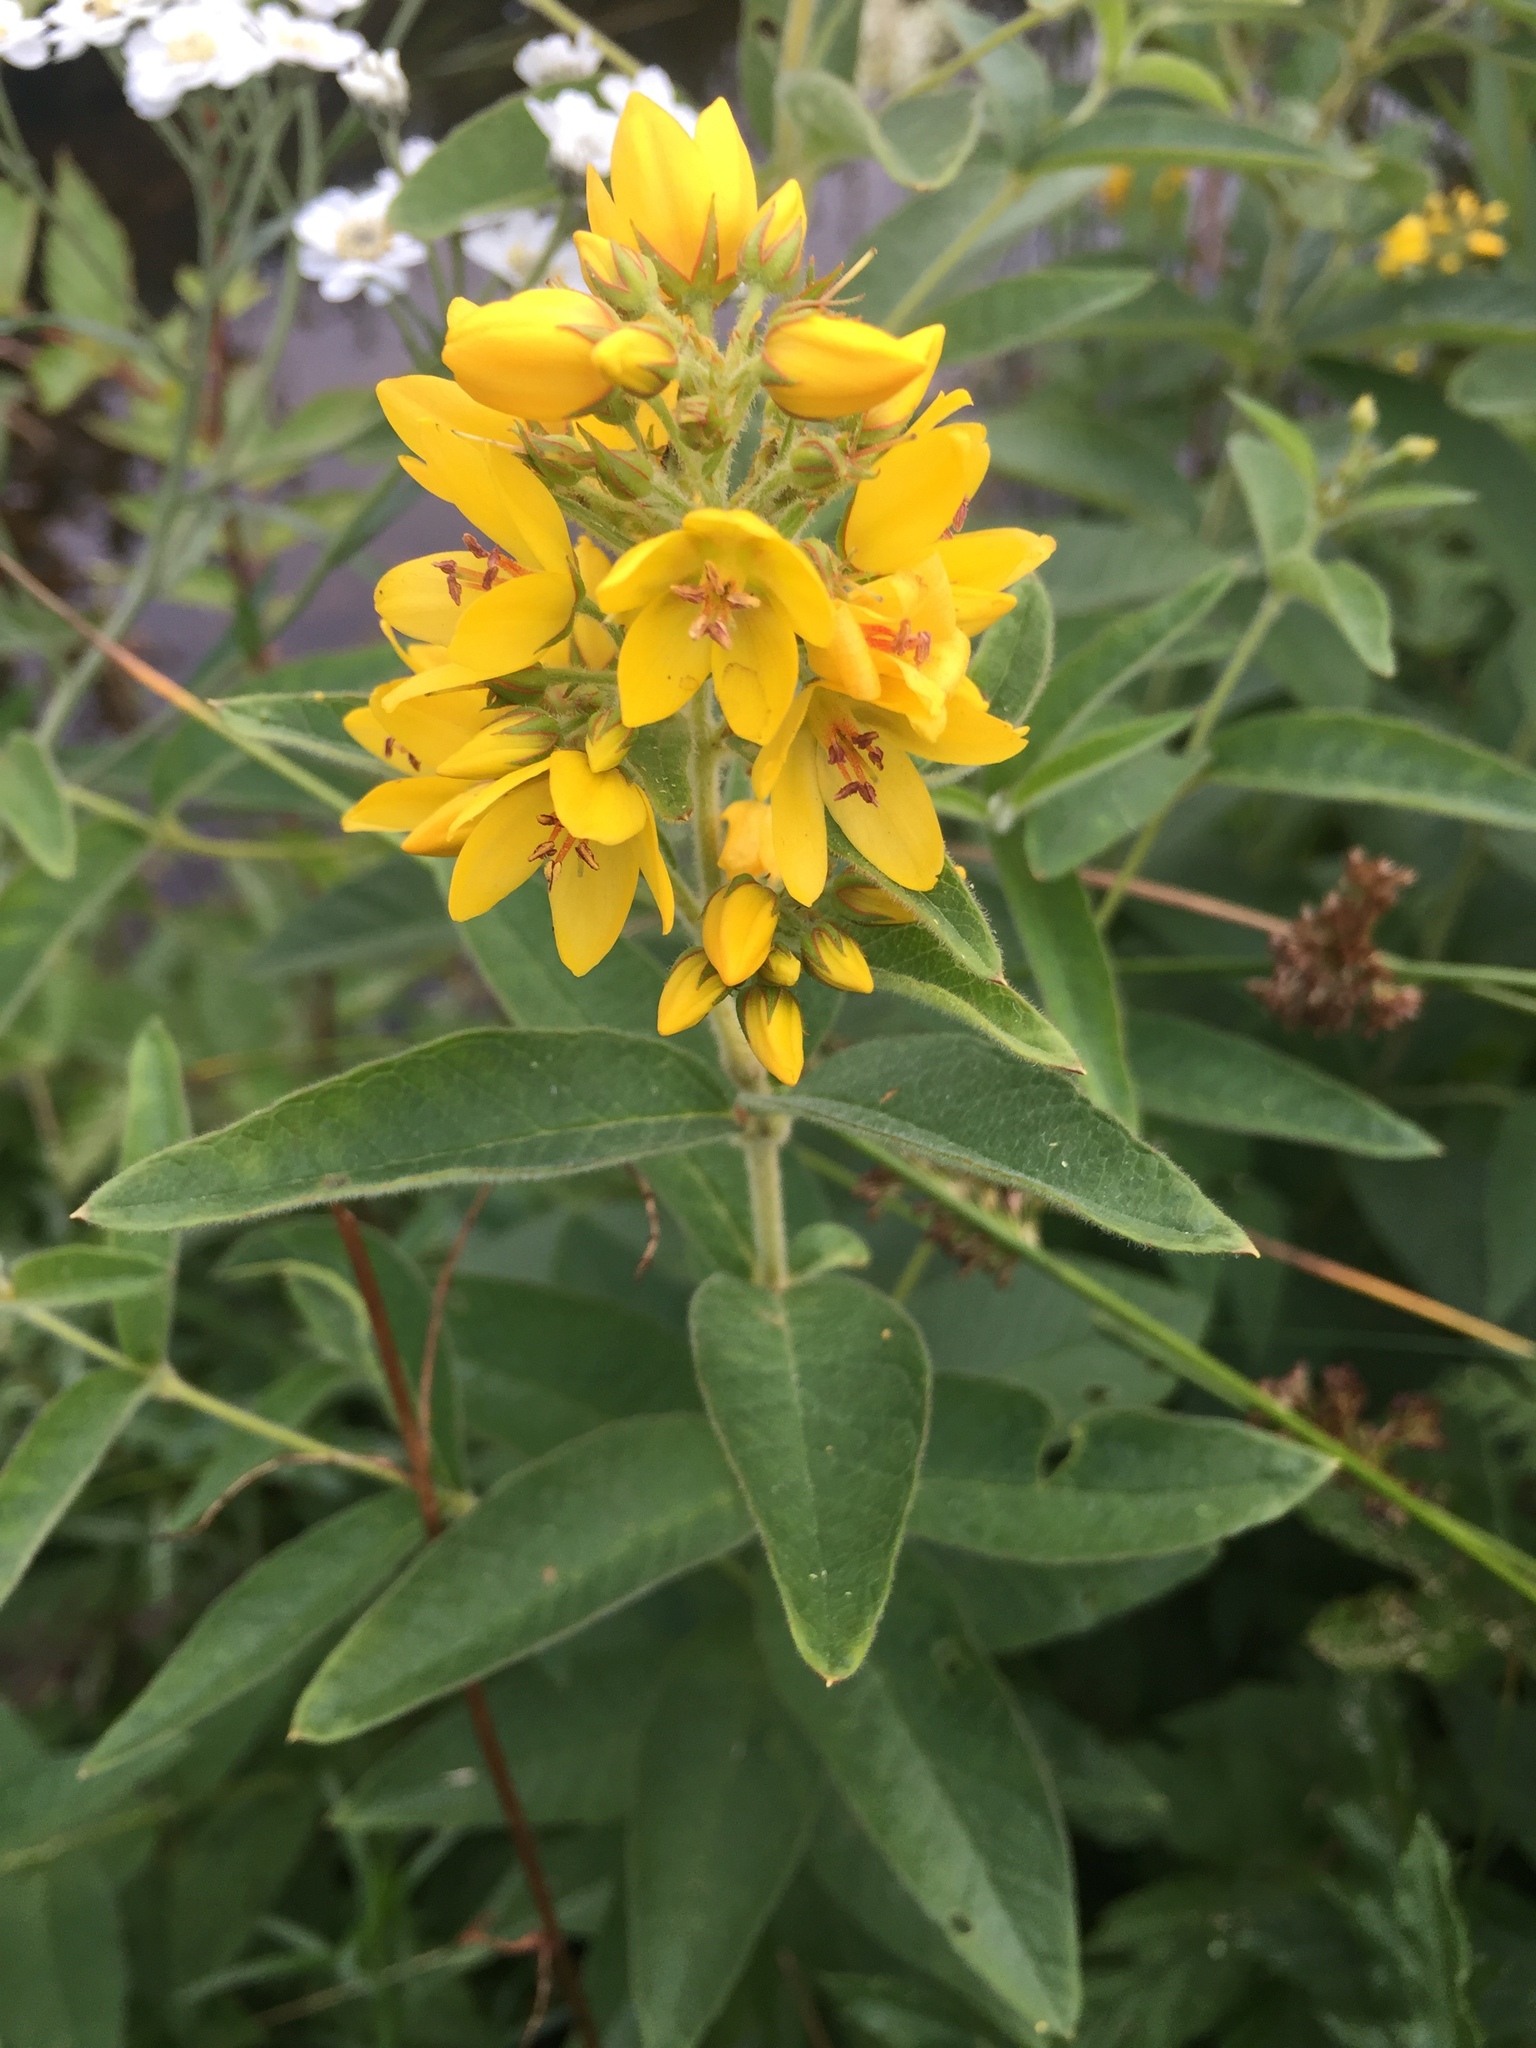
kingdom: Plantae
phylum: Tracheophyta
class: Magnoliopsida
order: Ericales
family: Primulaceae
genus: Lysimachia
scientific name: Lysimachia vulgaris
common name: Yellow loosestrife
